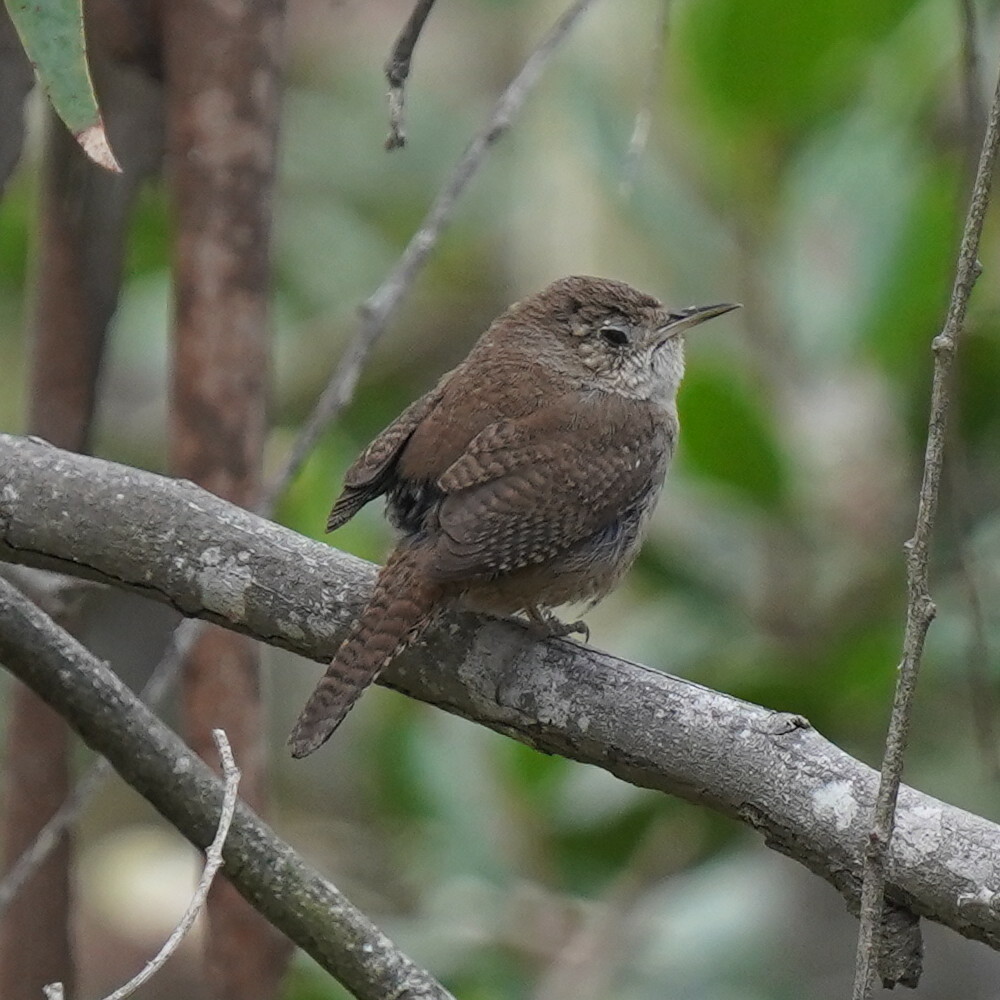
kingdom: Animalia
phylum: Chordata
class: Aves
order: Passeriformes
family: Troglodytidae
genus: Troglodytes
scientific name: Troglodytes aedon
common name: House wren
